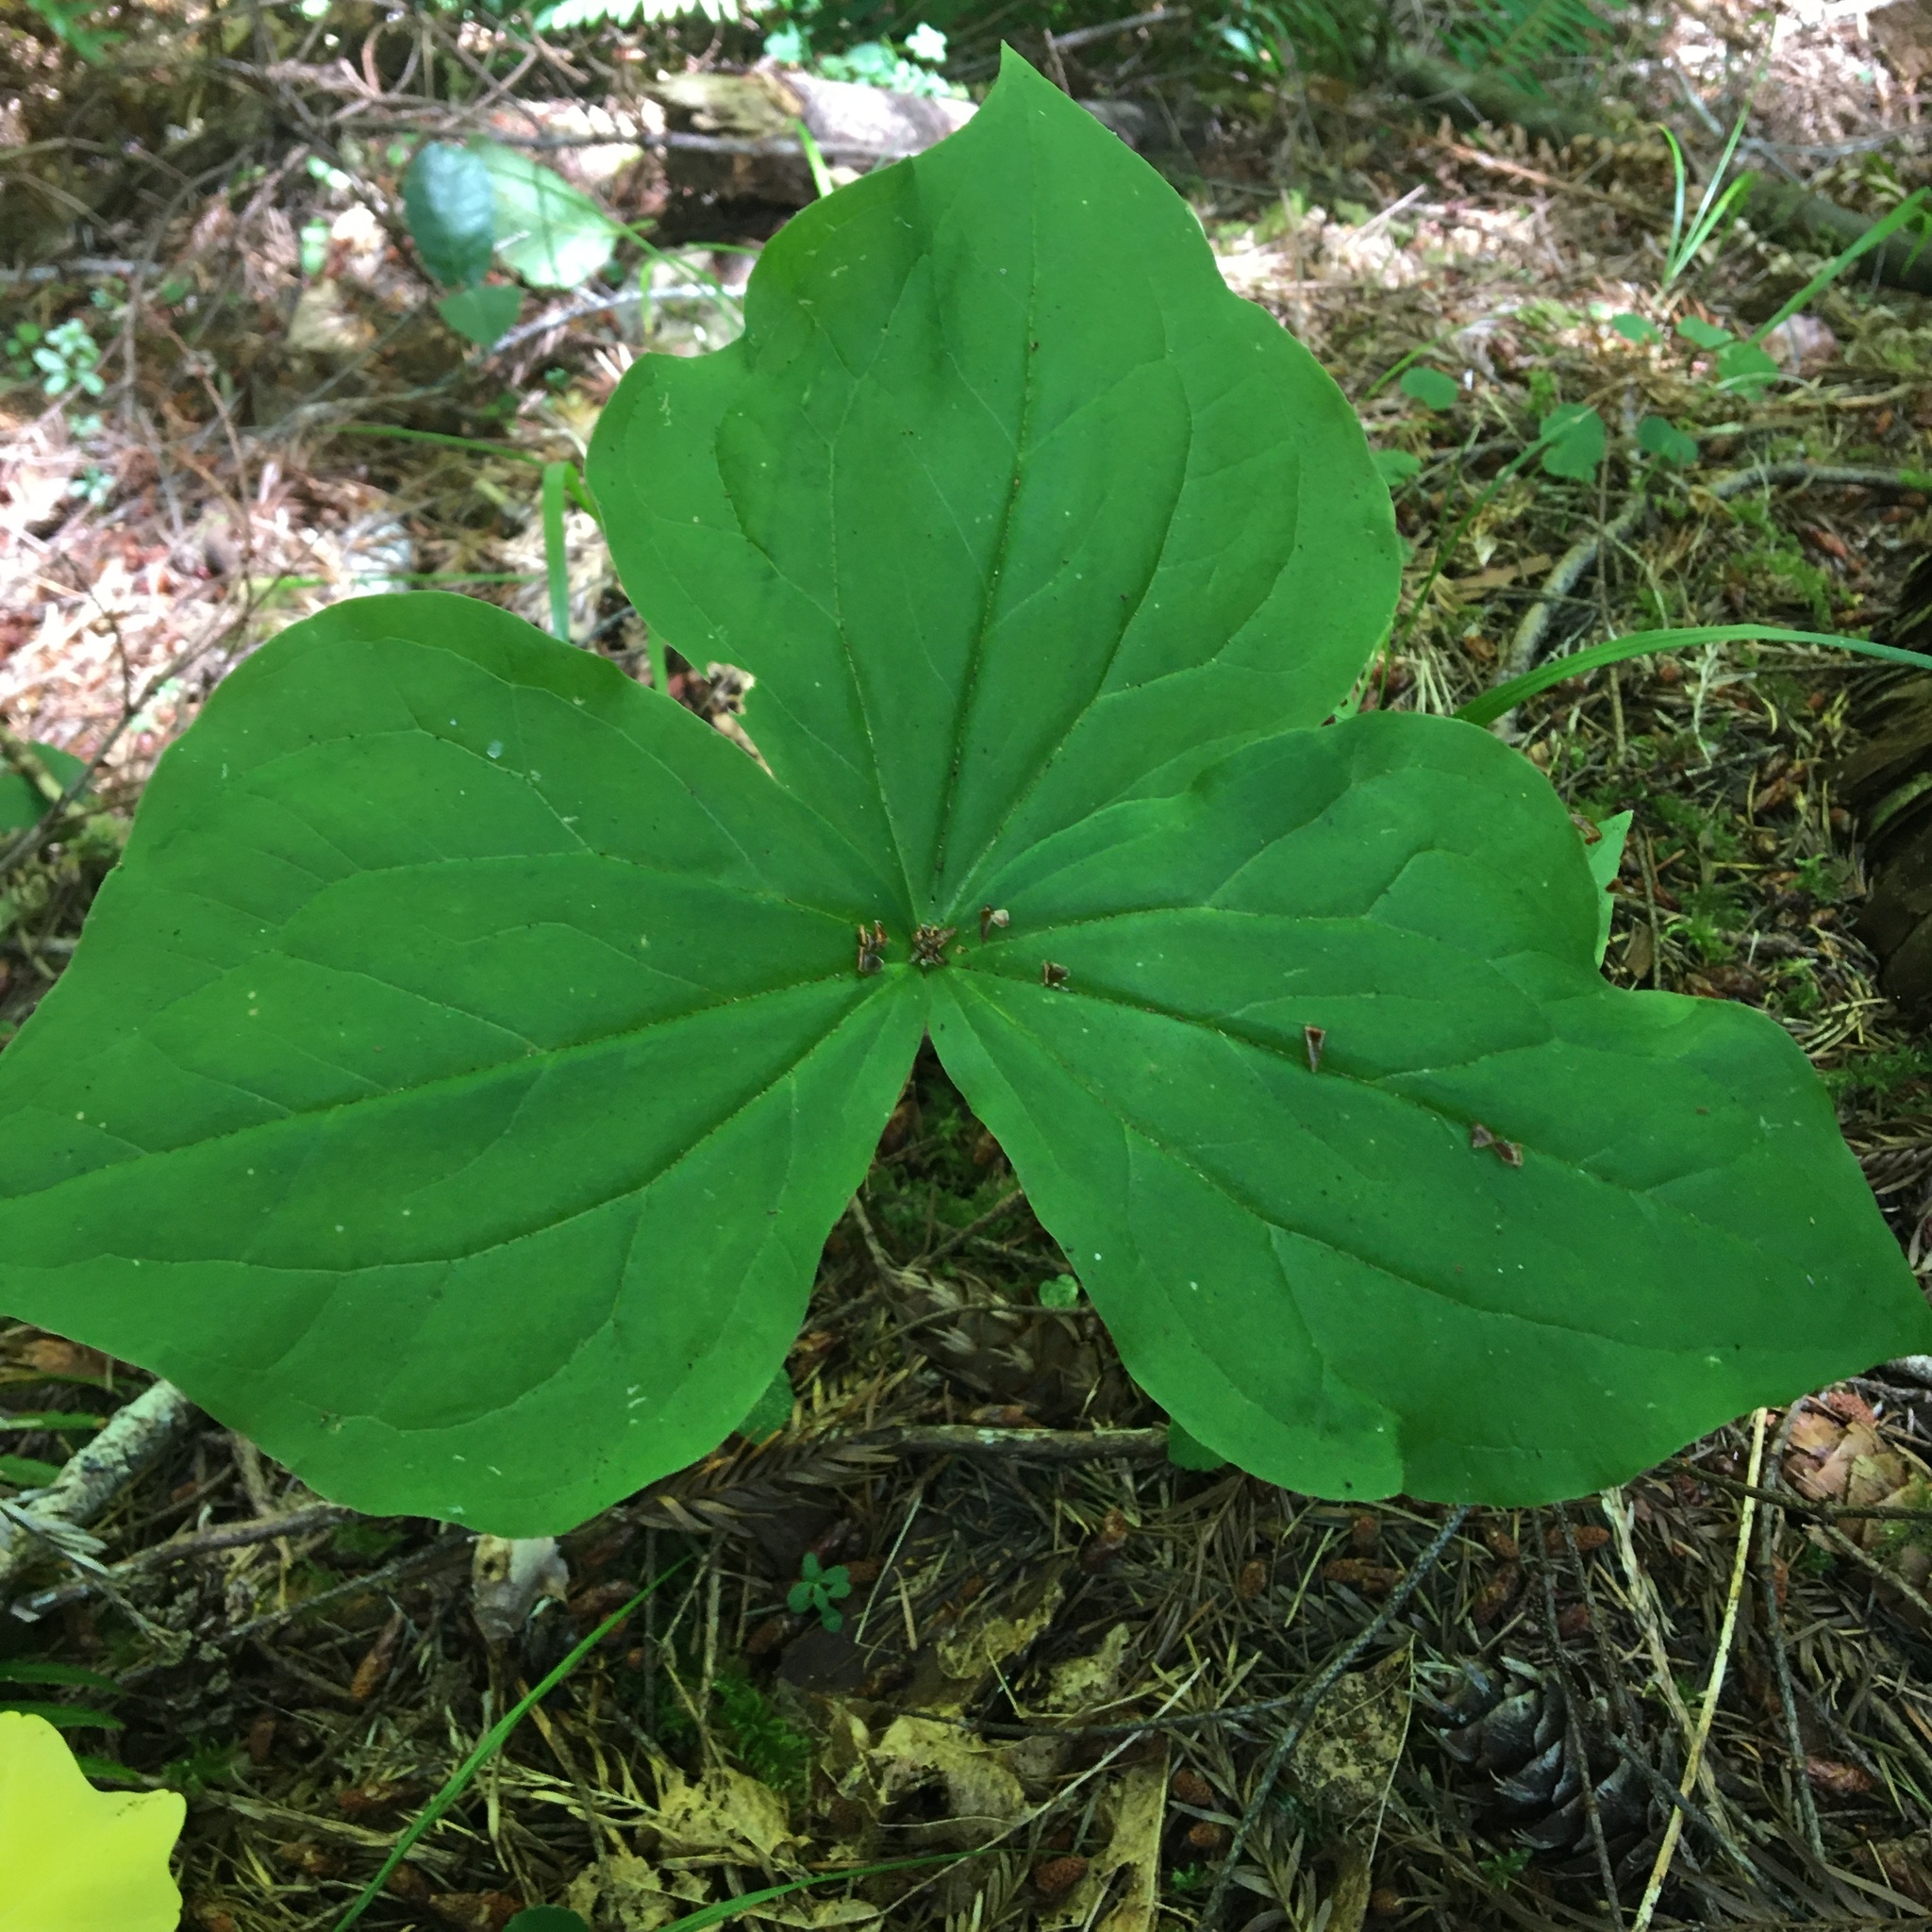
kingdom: Plantae
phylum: Tracheophyta
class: Liliopsida
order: Liliales
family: Melanthiaceae
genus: Trillium
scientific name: Trillium ovatum
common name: Pacific trillium
